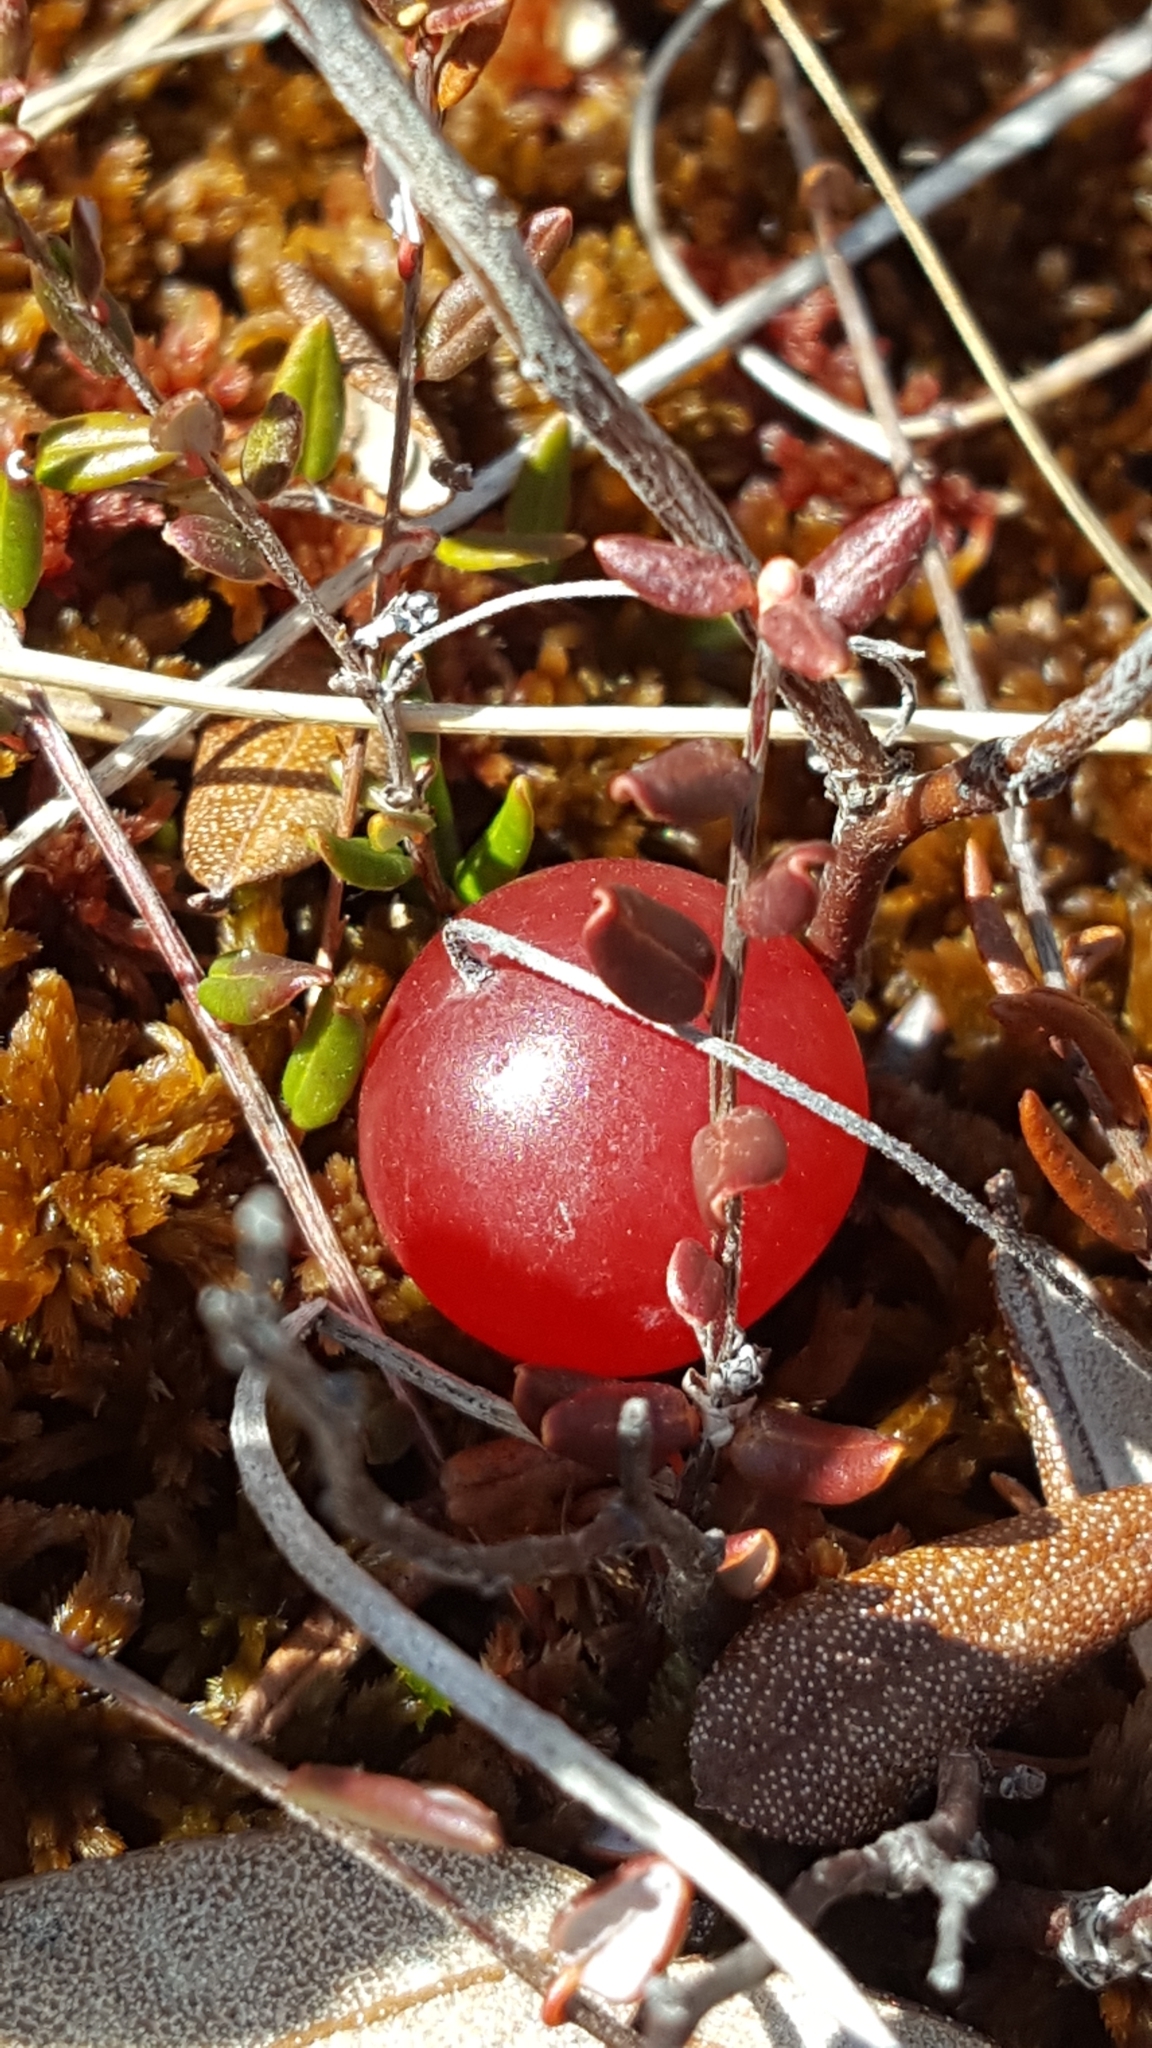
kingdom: Plantae
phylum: Tracheophyta
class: Magnoliopsida
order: Ericales
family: Ericaceae
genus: Vaccinium
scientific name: Vaccinium oxycoccos
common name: Cranberry
